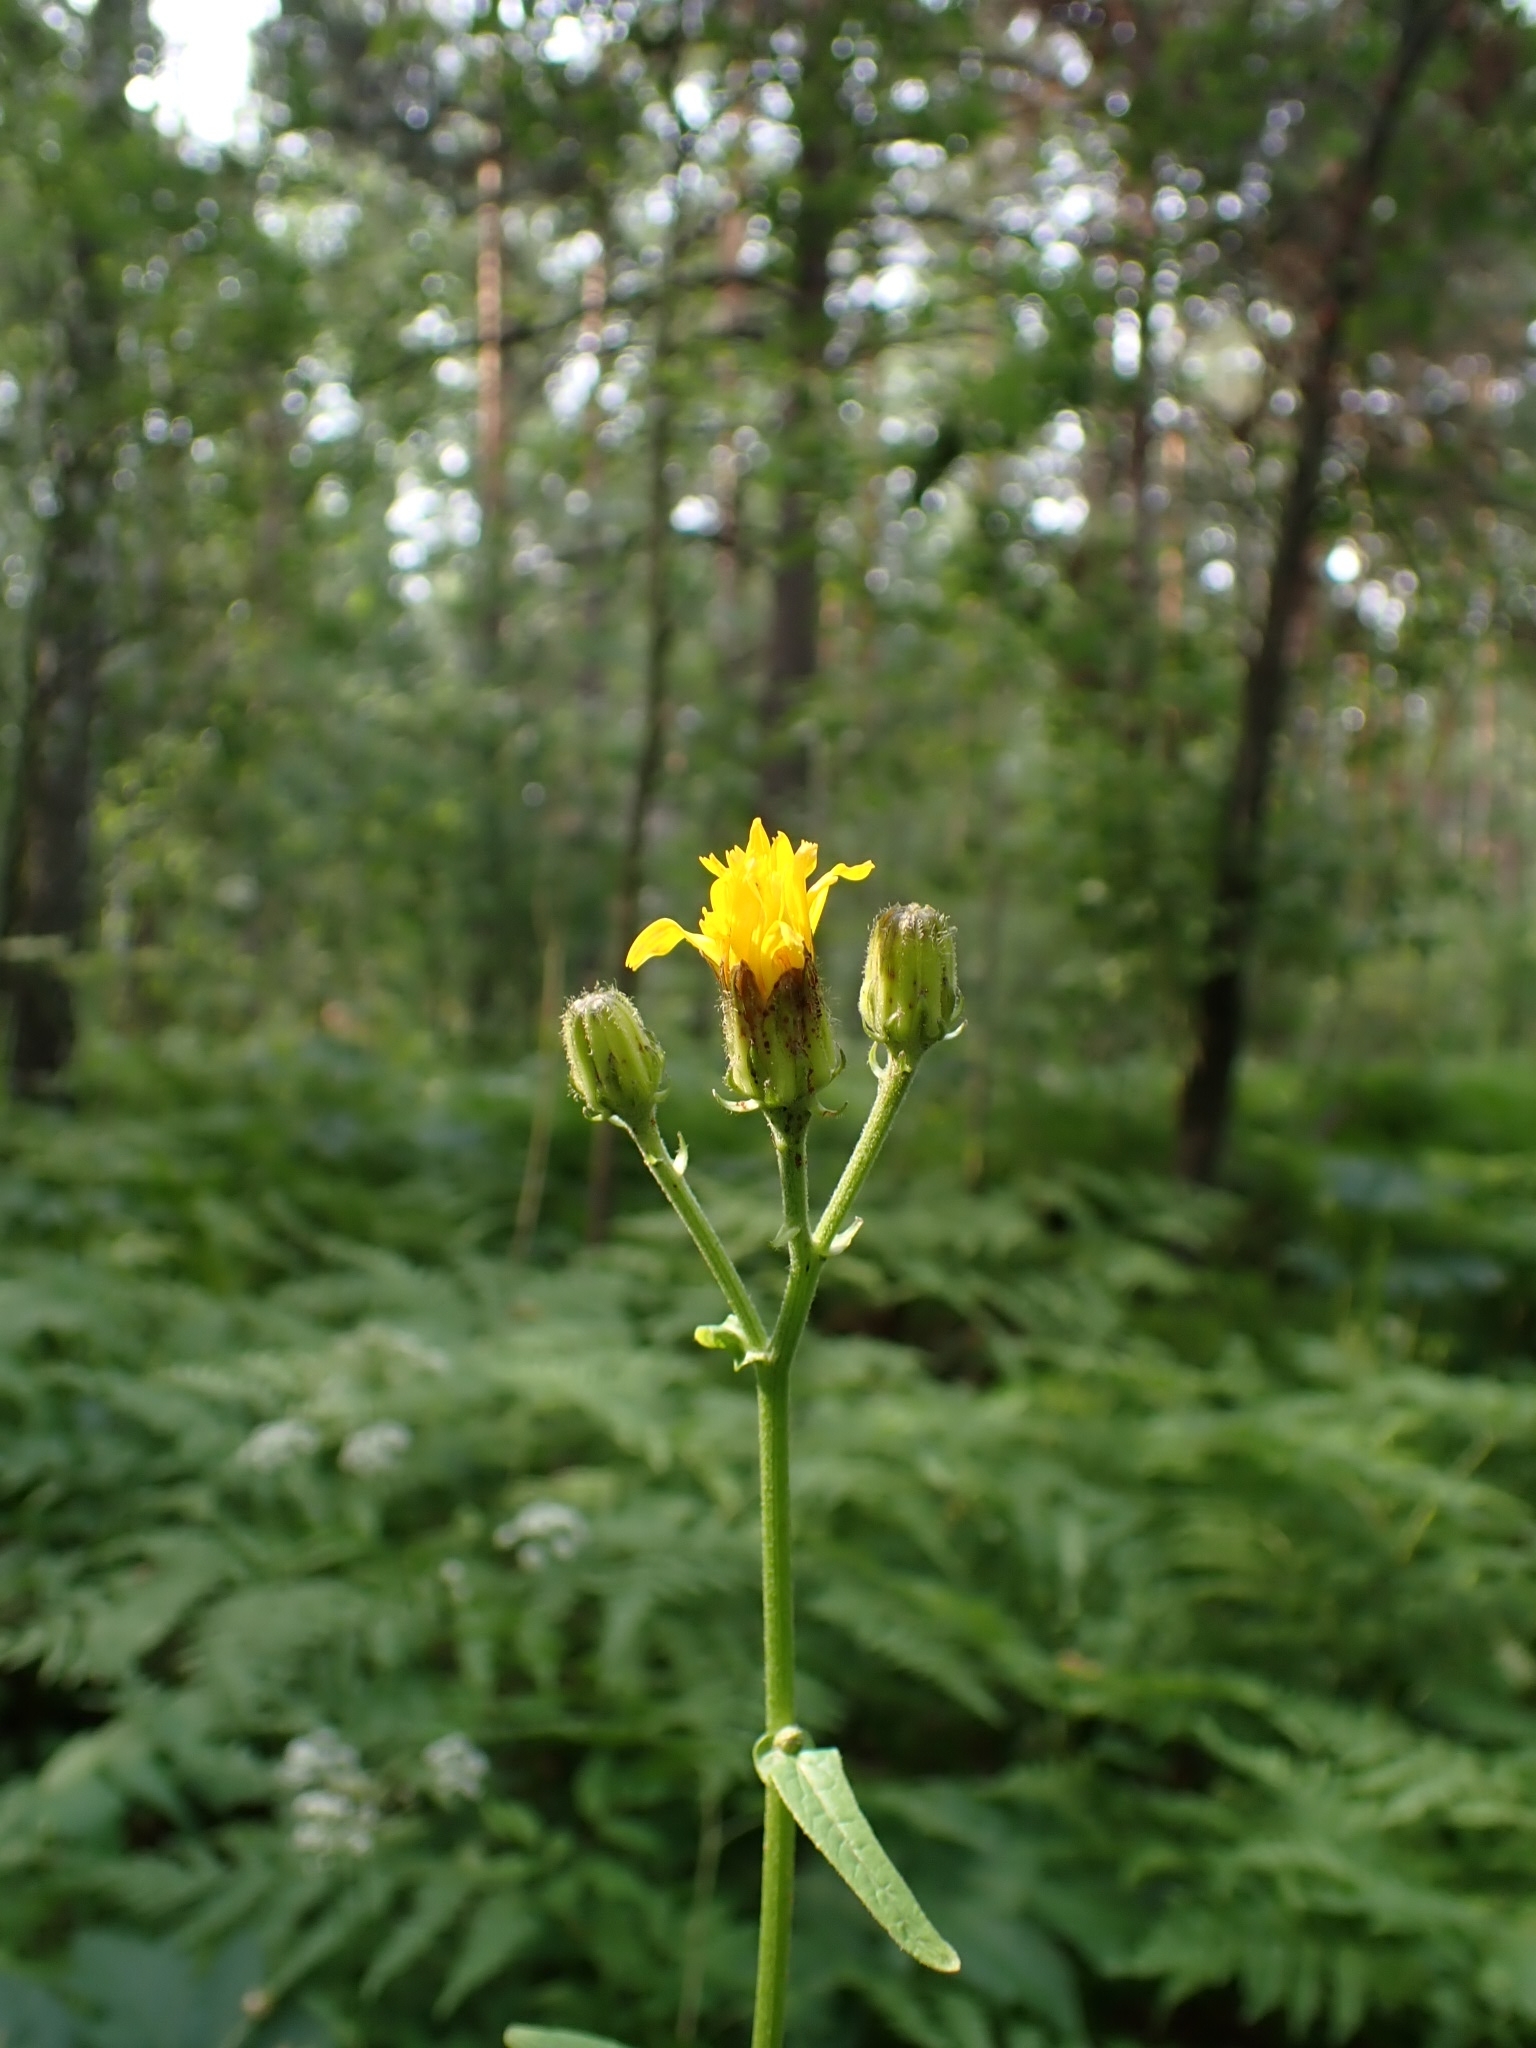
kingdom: Plantae
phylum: Tracheophyta
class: Magnoliopsida
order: Asterales
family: Asteraceae
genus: Crepis
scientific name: Crepis sibirica
